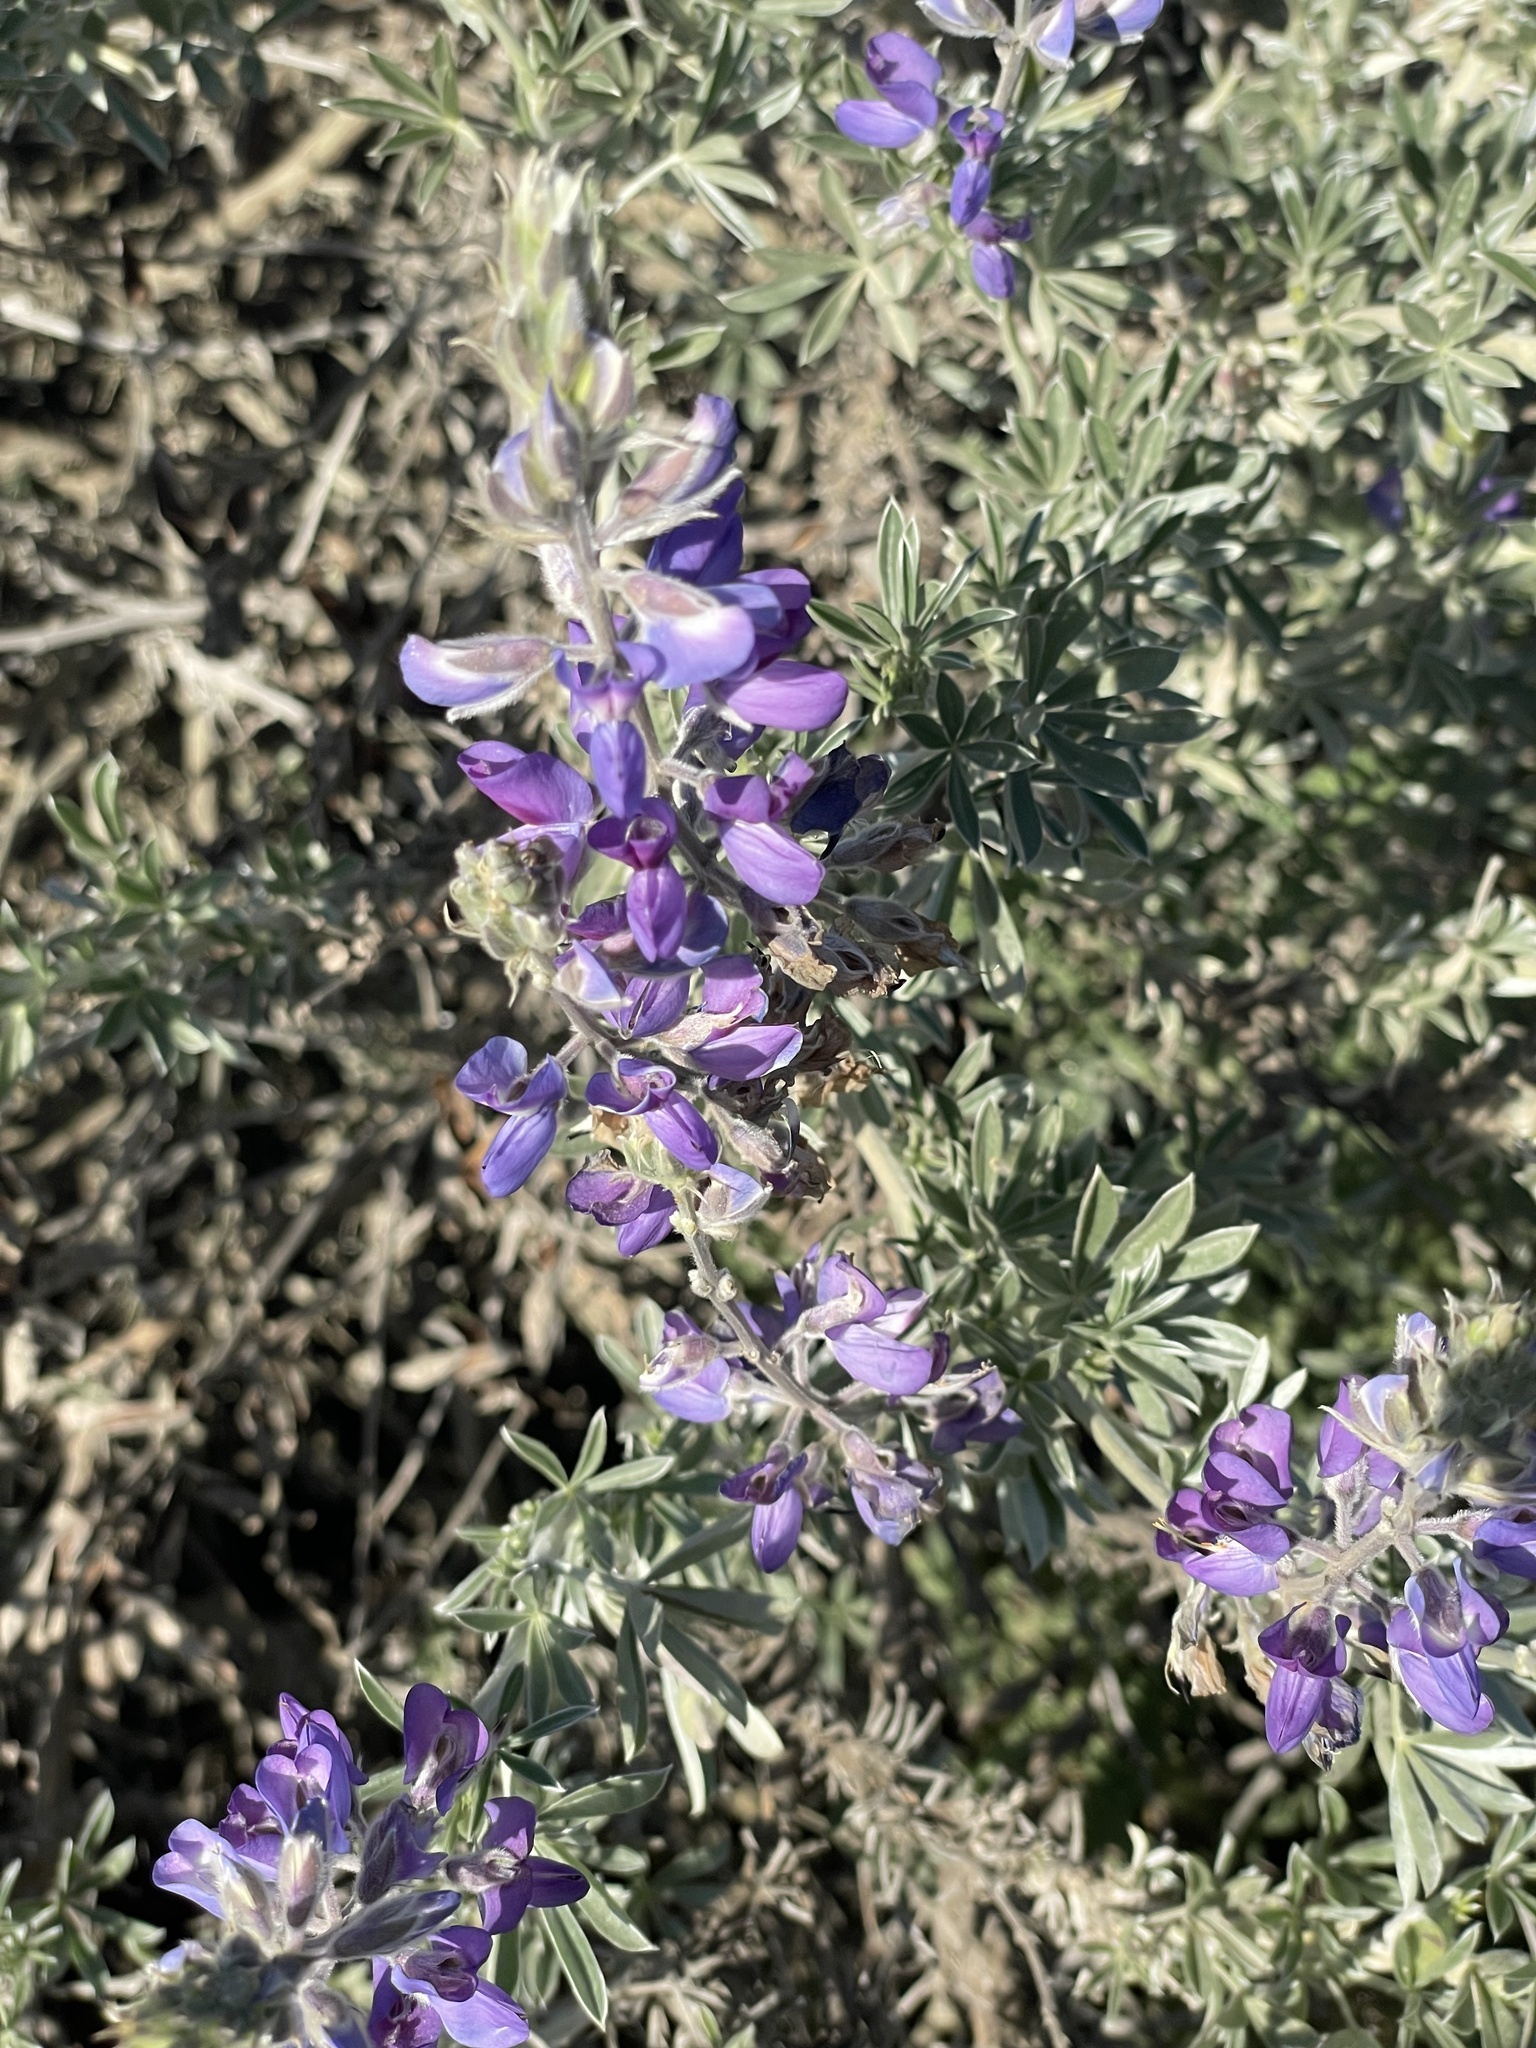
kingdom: Plantae
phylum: Tracheophyta
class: Magnoliopsida
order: Fabales
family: Fabaceae
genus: Lupinus
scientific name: Lupinus chamissonis
